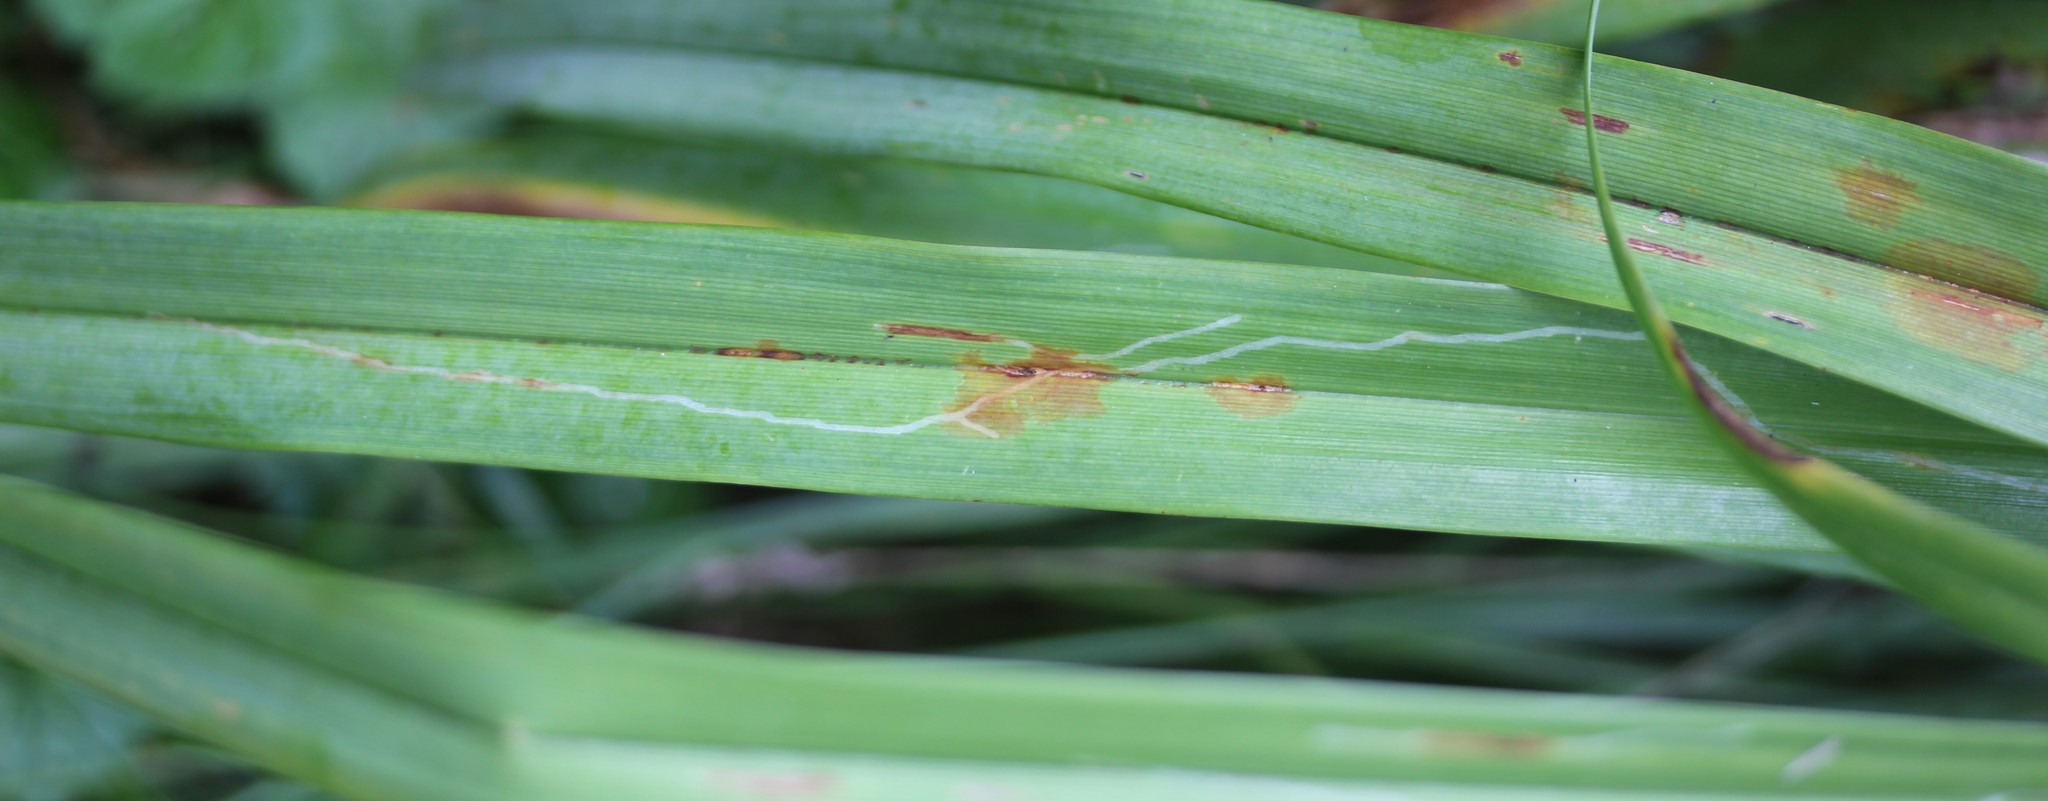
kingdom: Animalia
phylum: Arthropoda
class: Insecta
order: Diptera
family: Agromyzidae
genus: Ophiomyia
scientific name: Ophiomyia kwansonis
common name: Daylily leafminer
